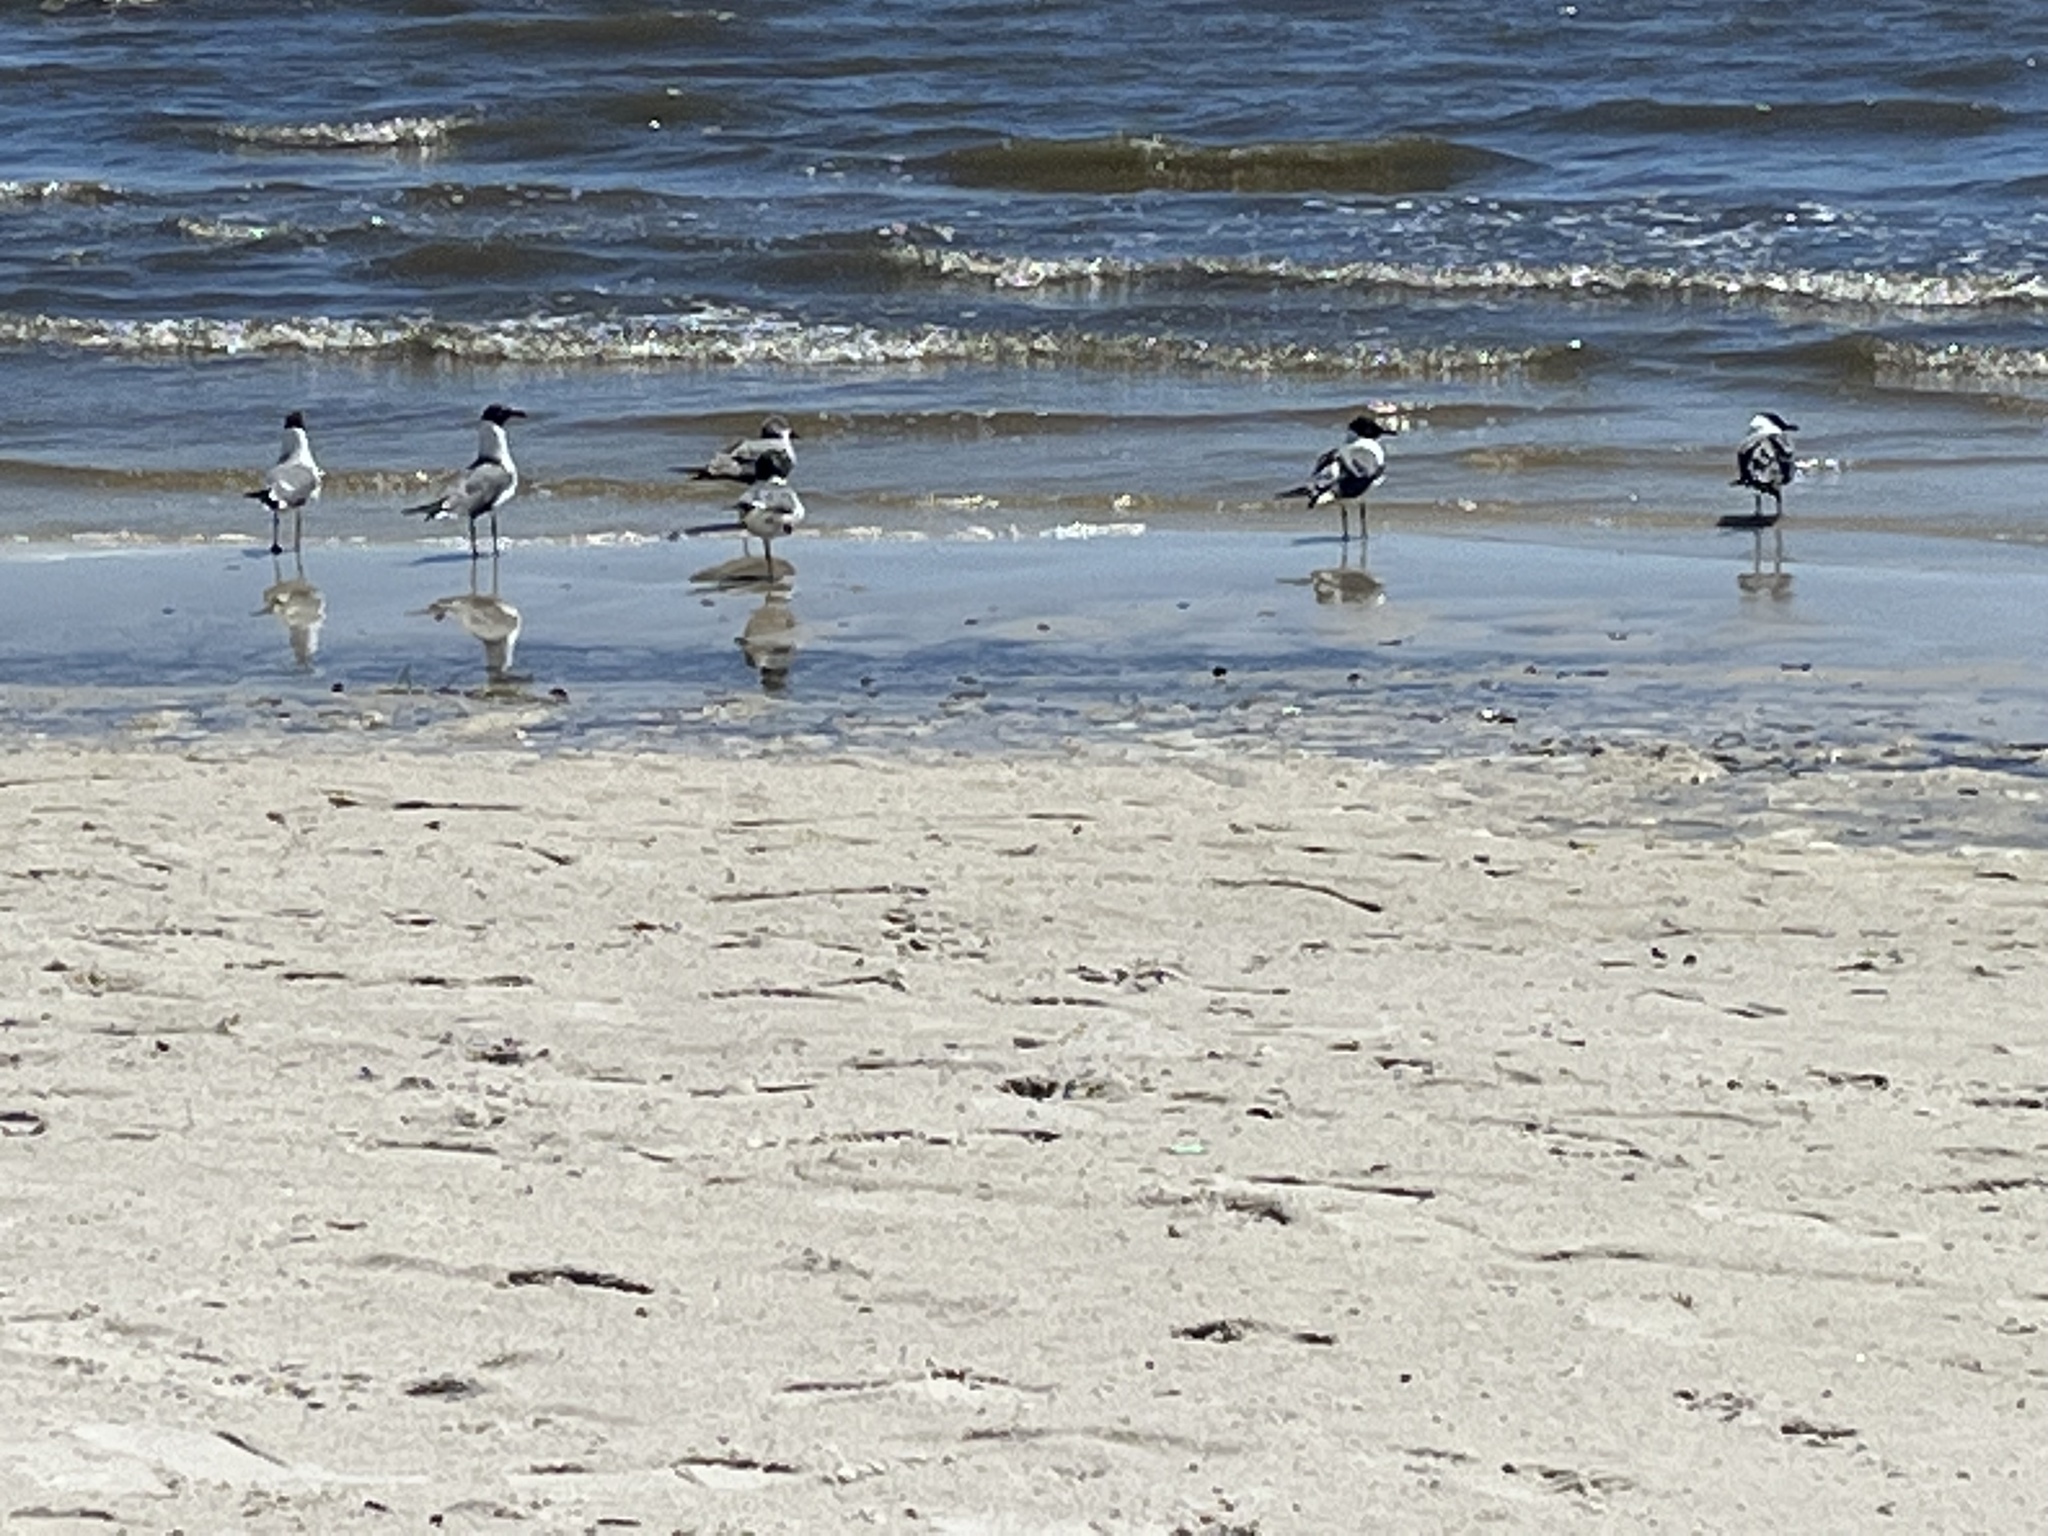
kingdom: Animalia
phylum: Chordata
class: Aves
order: Charadriiformes
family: Laridae
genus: Leucophaeus
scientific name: Leucophaeus atricilla
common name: Laughing gull
